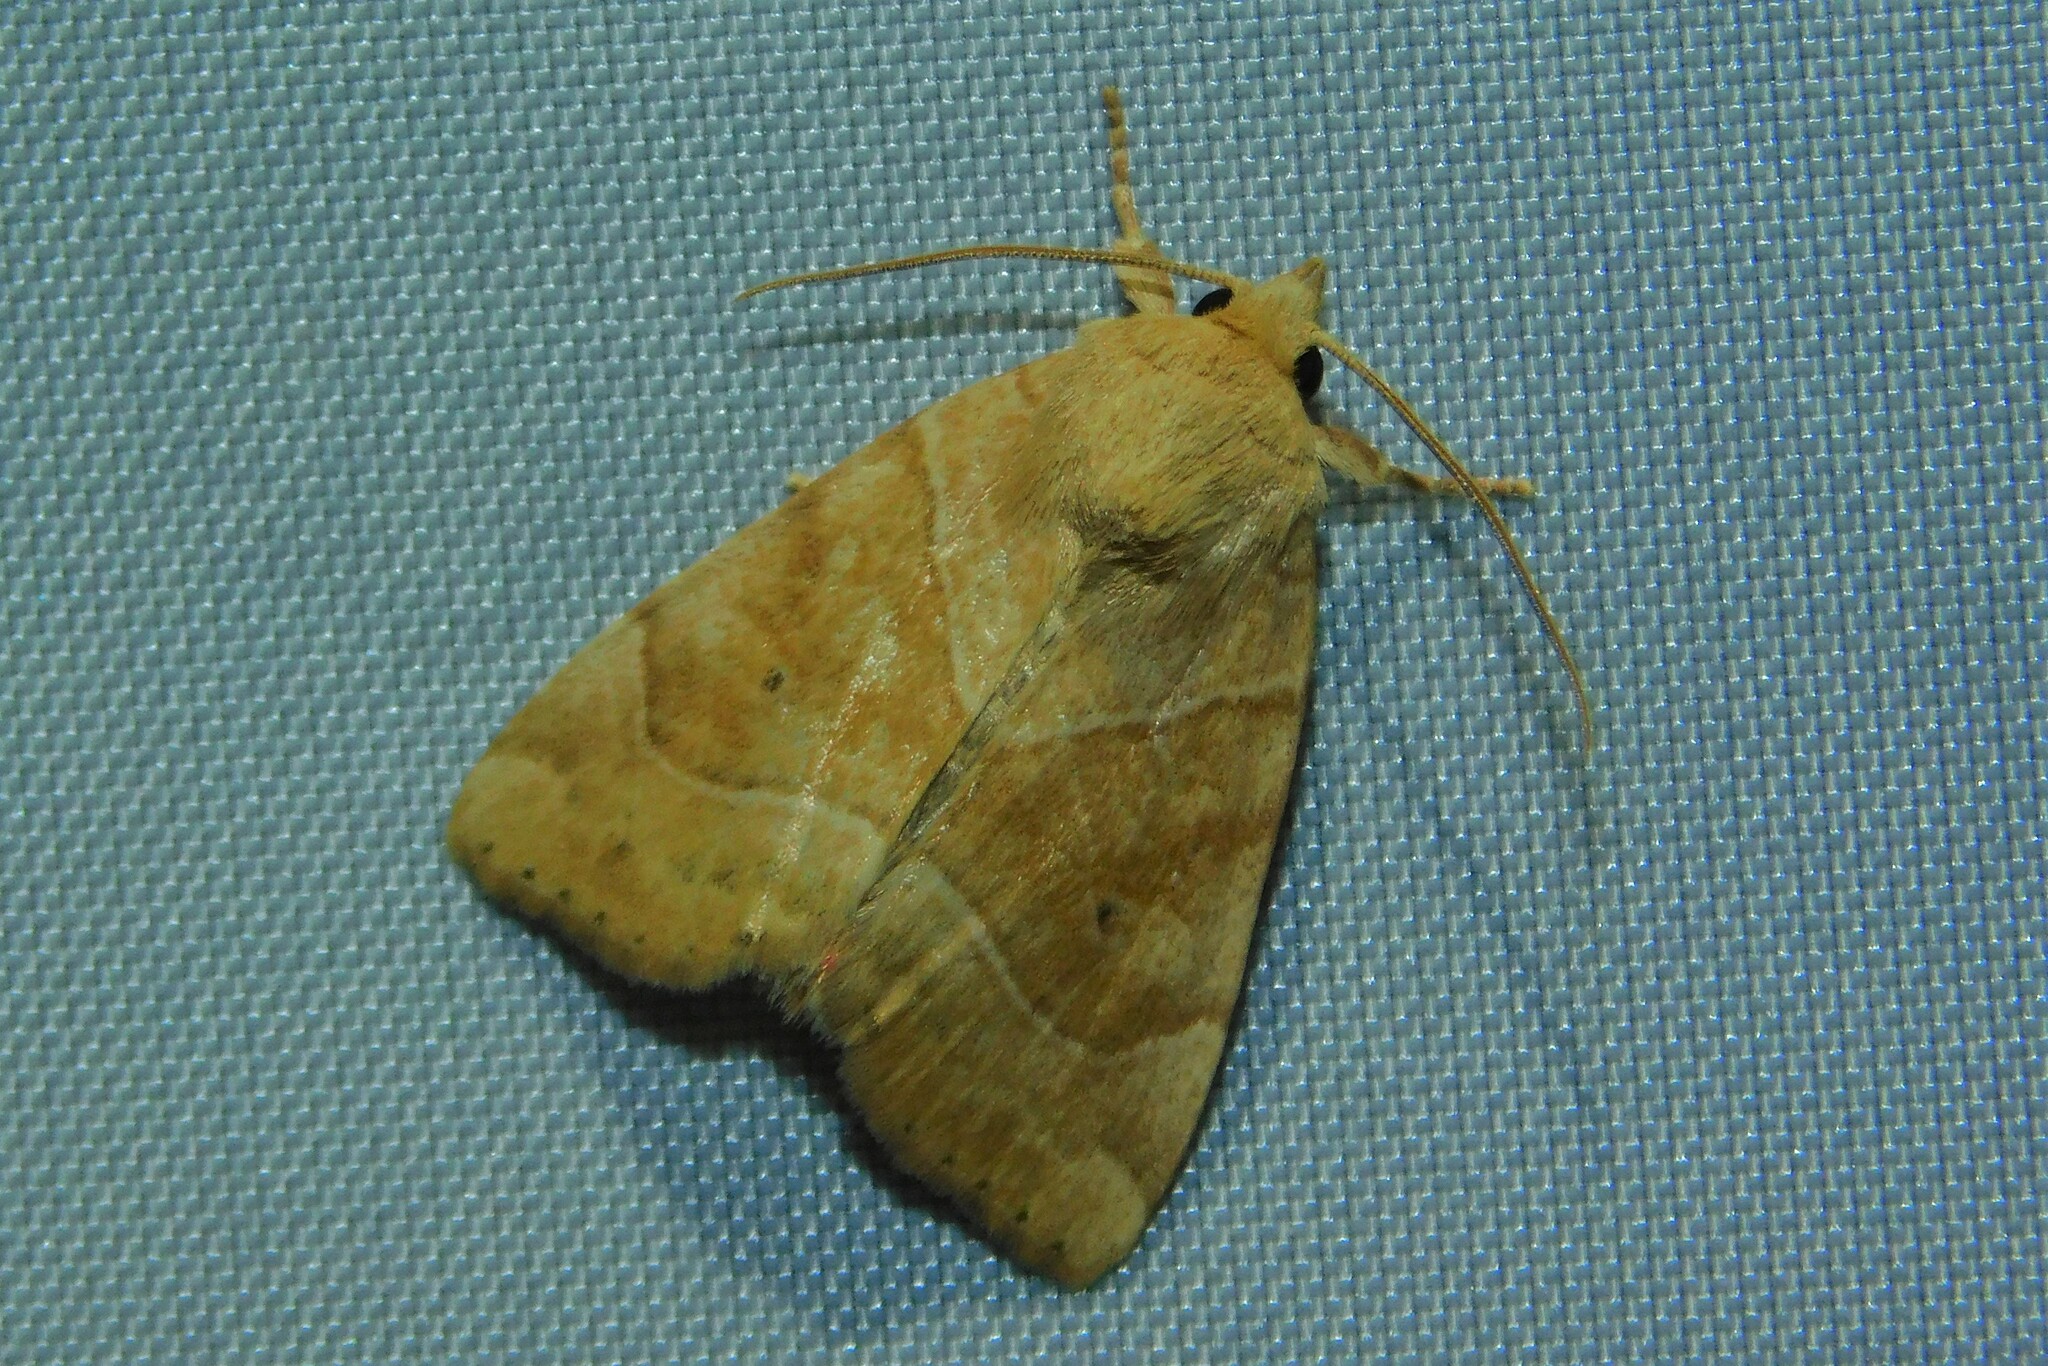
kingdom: Animalia
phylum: Arthropoda
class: Insecta
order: Lepidoptera
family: Noctuidae
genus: Cosmia
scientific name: Cosmia trapezina
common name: Dun-bar
